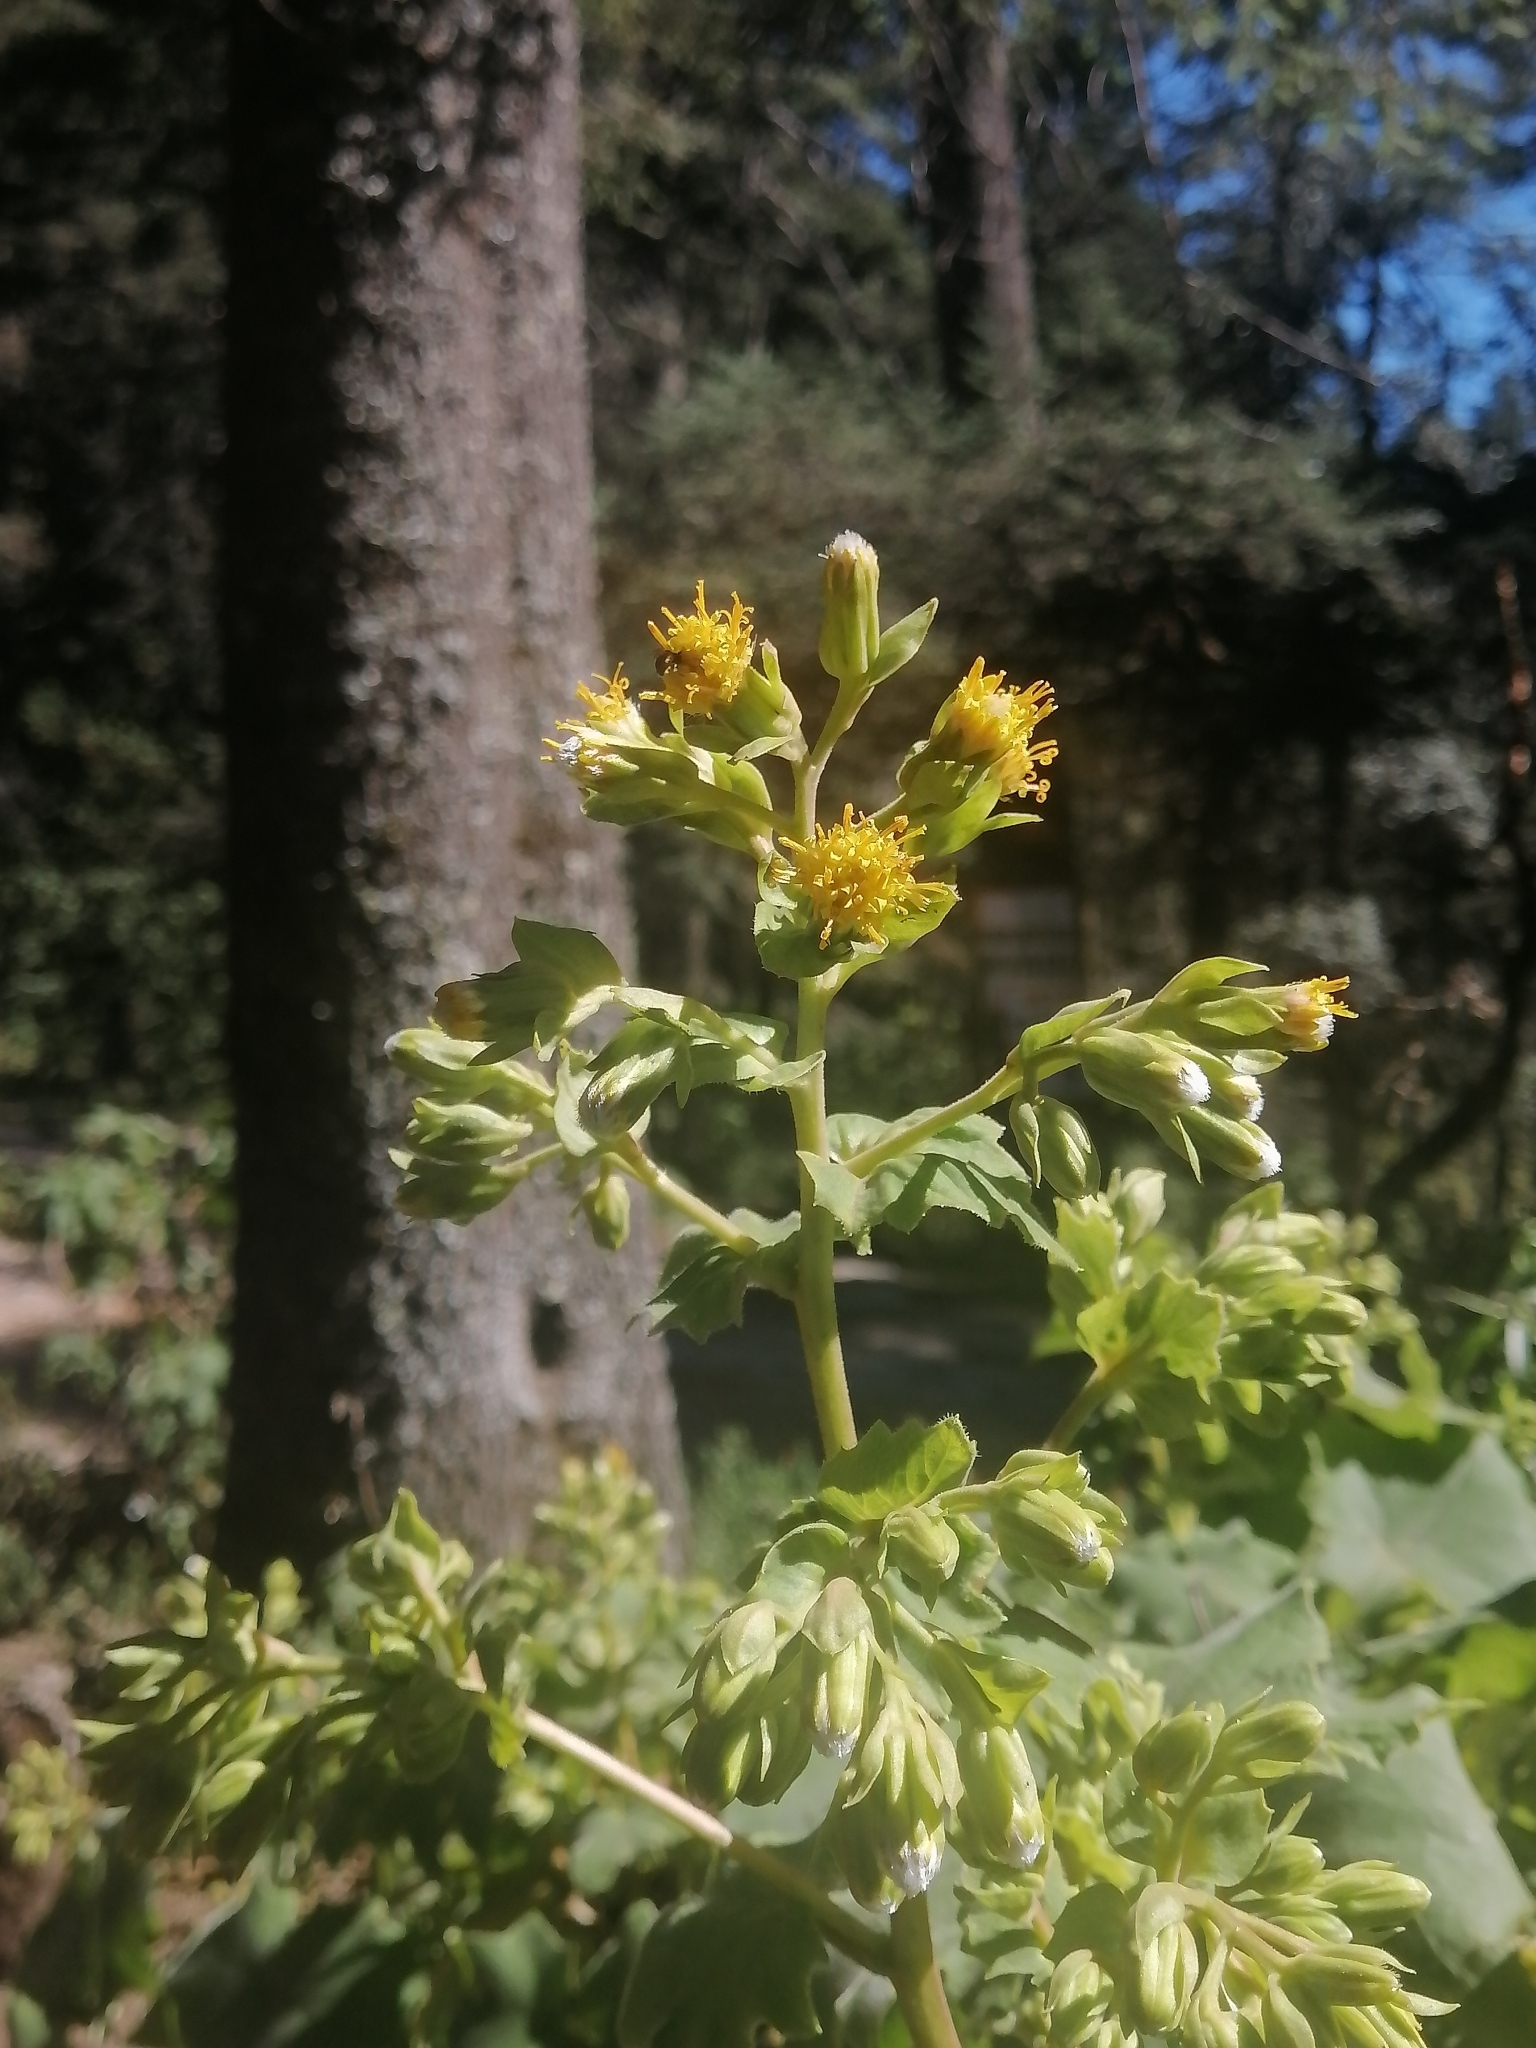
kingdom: Plantae
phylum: Tracheophyta
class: Magnoliopsida
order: Asterales
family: Asteraceae
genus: Roldana
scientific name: Roldana angulifolia
